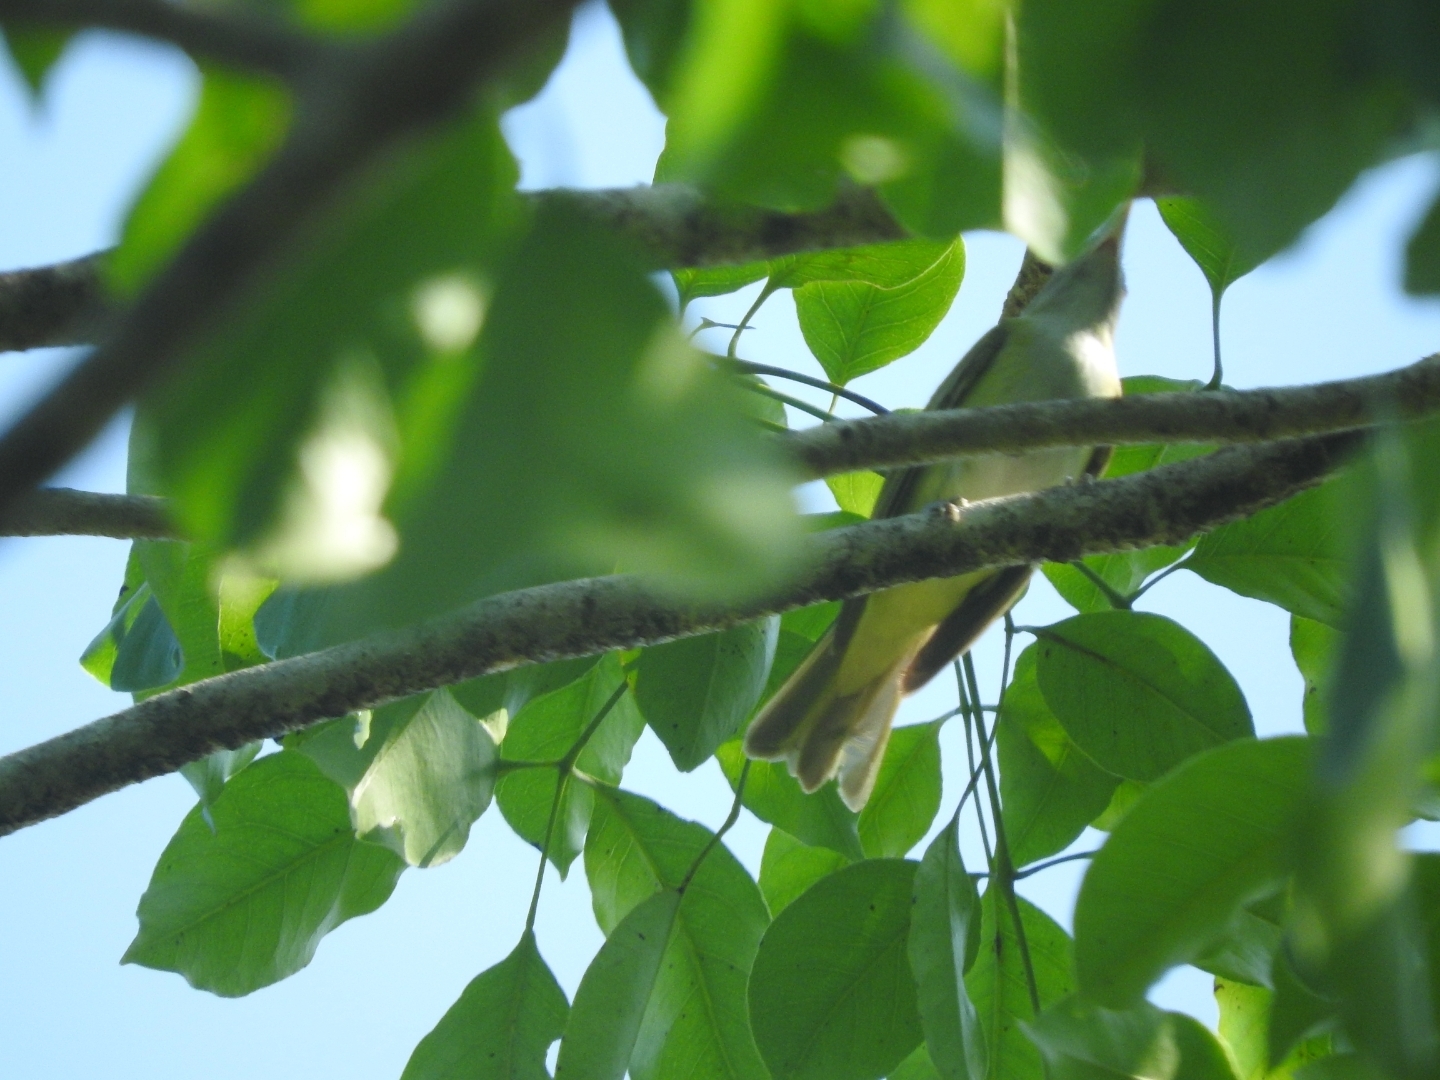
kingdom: Animalia
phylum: Chordata
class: Aves
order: Passeriformes
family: Vireonidae
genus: Hylophilus
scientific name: Hylophilus decurtatus
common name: Lesser greenlet
